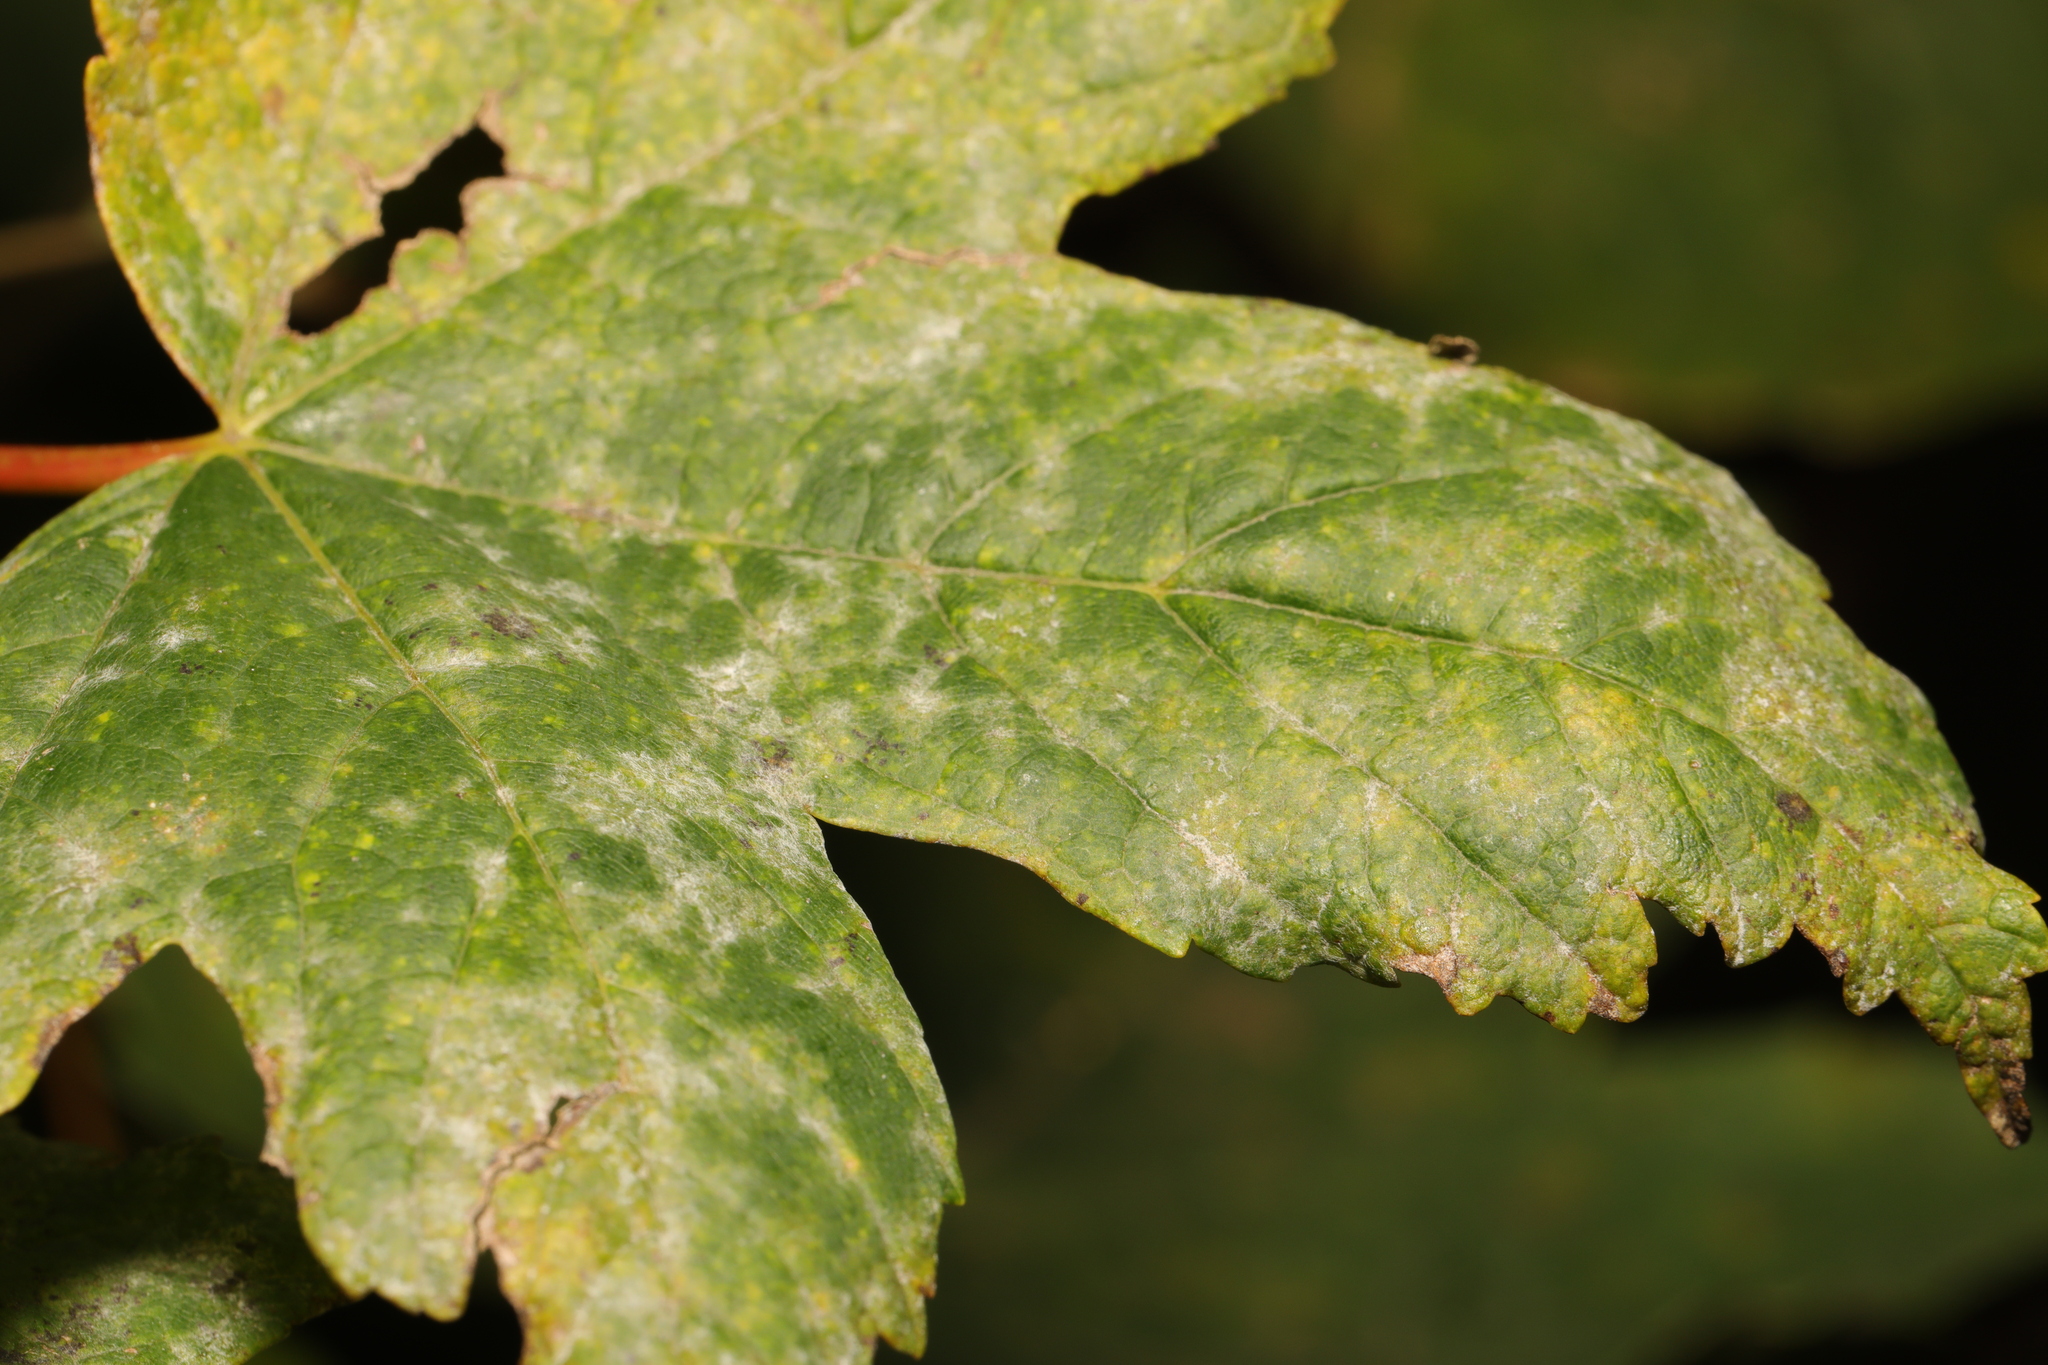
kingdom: Fungi
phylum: Ascomycota
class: Leotiomycetes
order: Helotiales
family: Erysiphaceae
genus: Sawadaea
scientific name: Sawadaea bicornis
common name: Maple mildew
